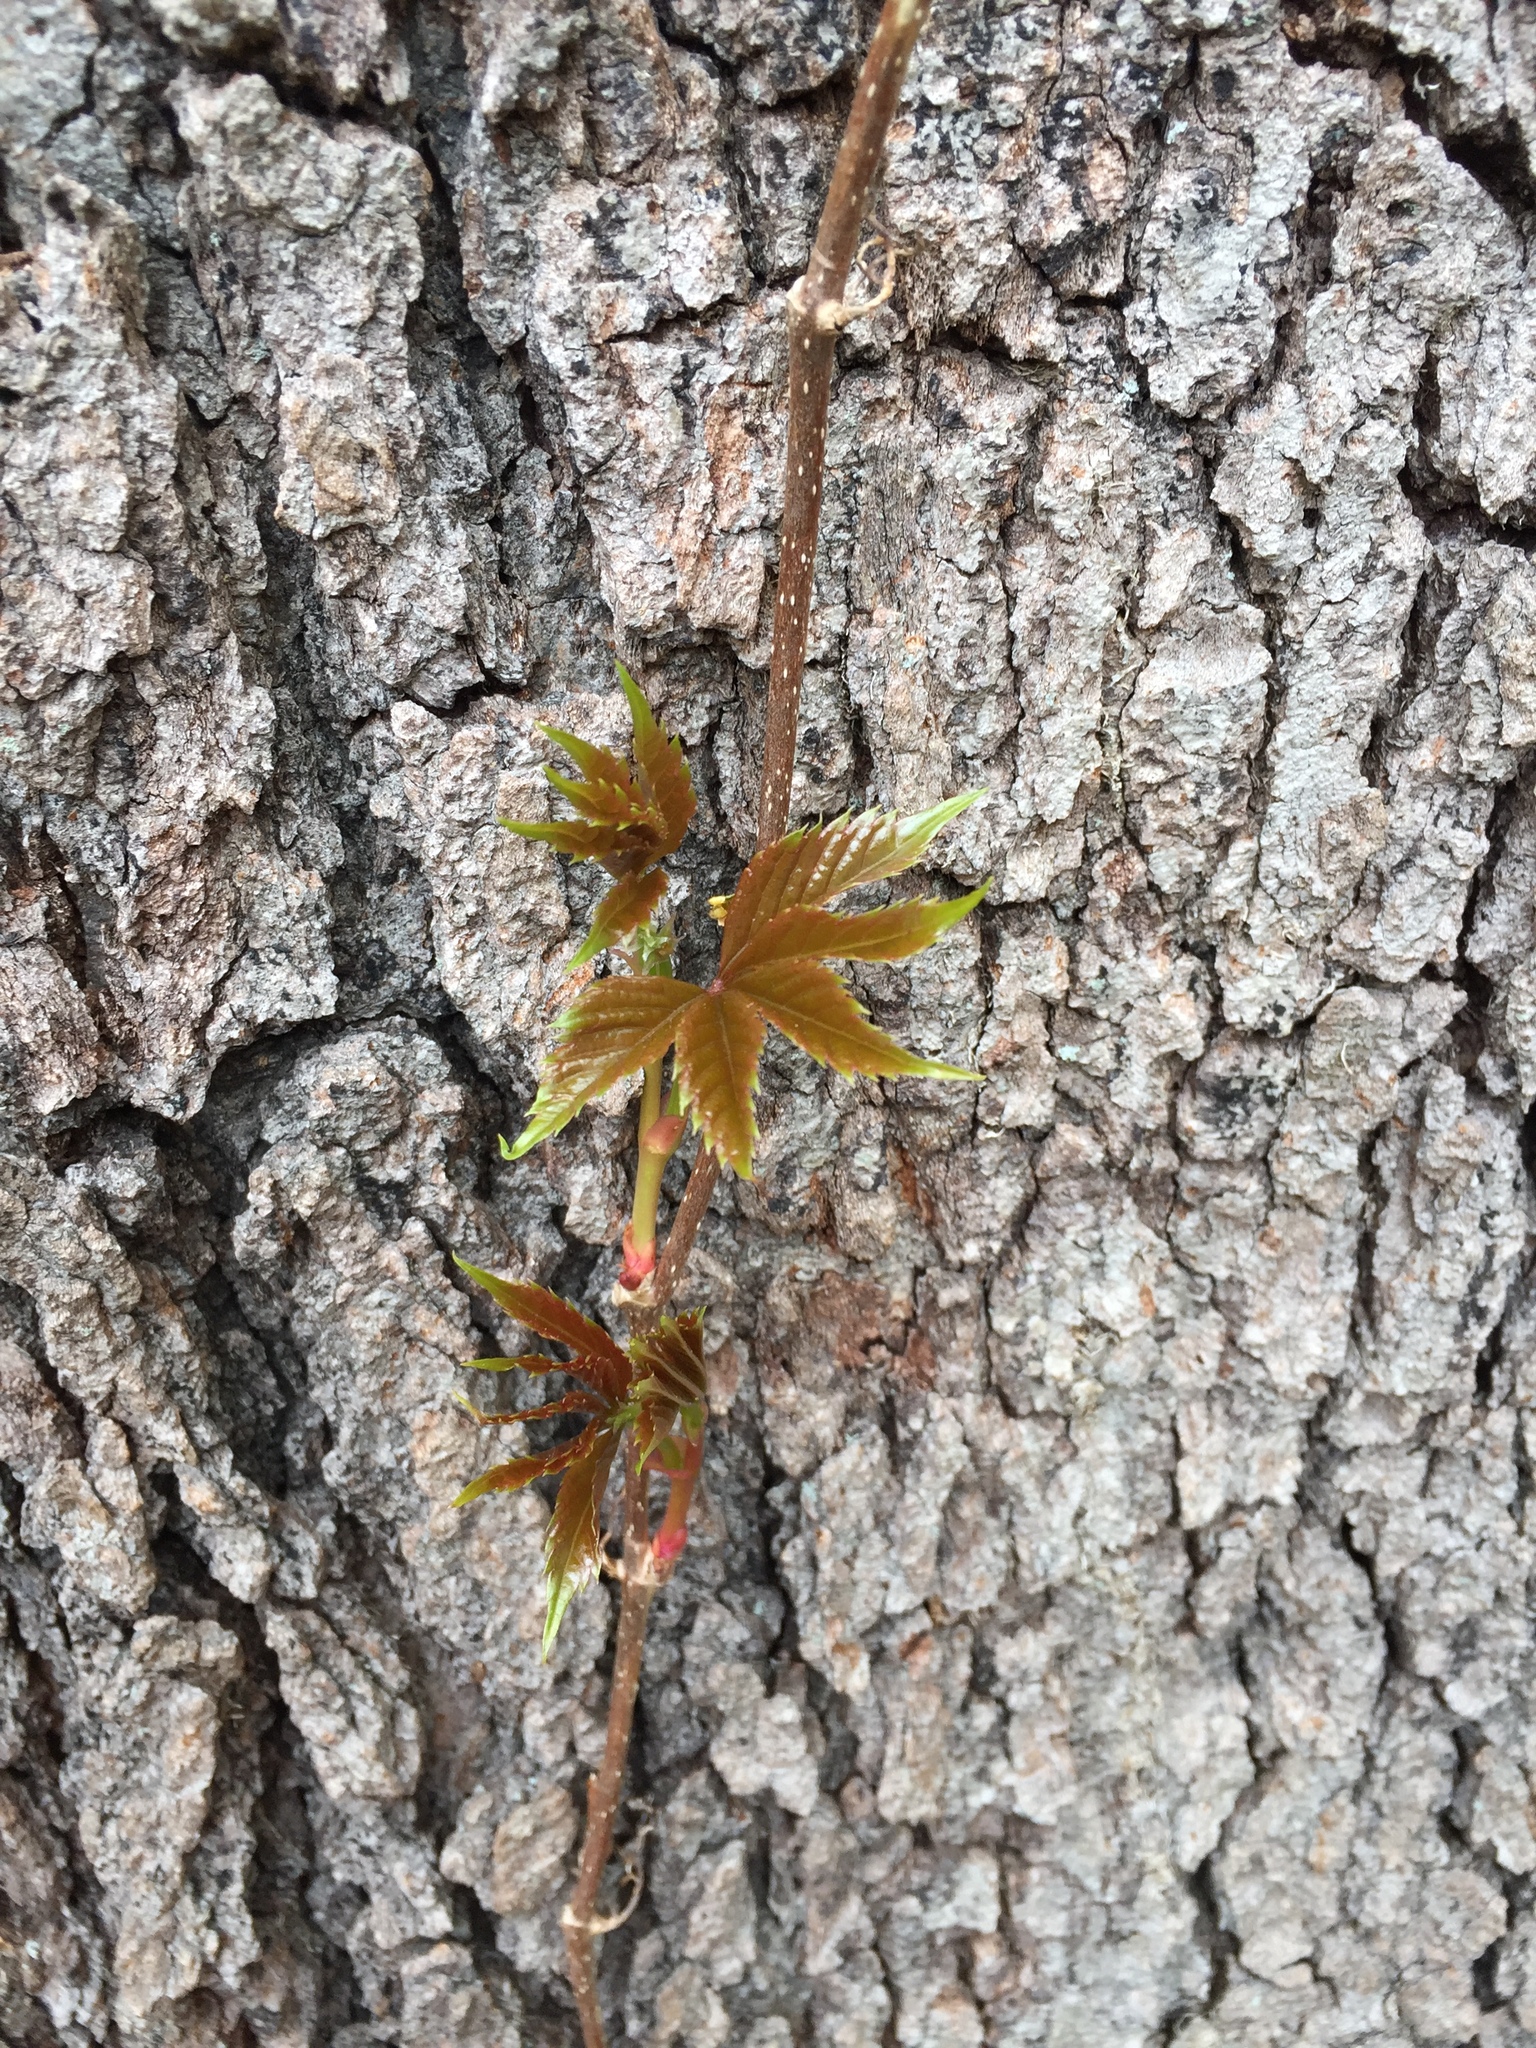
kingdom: Plantae
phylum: Tracheophyta
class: Magnoliopsida
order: Vitales
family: Vitaceae
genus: Parthenocissus
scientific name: Parthenocissus quinquefolia
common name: Virginia-creeper
